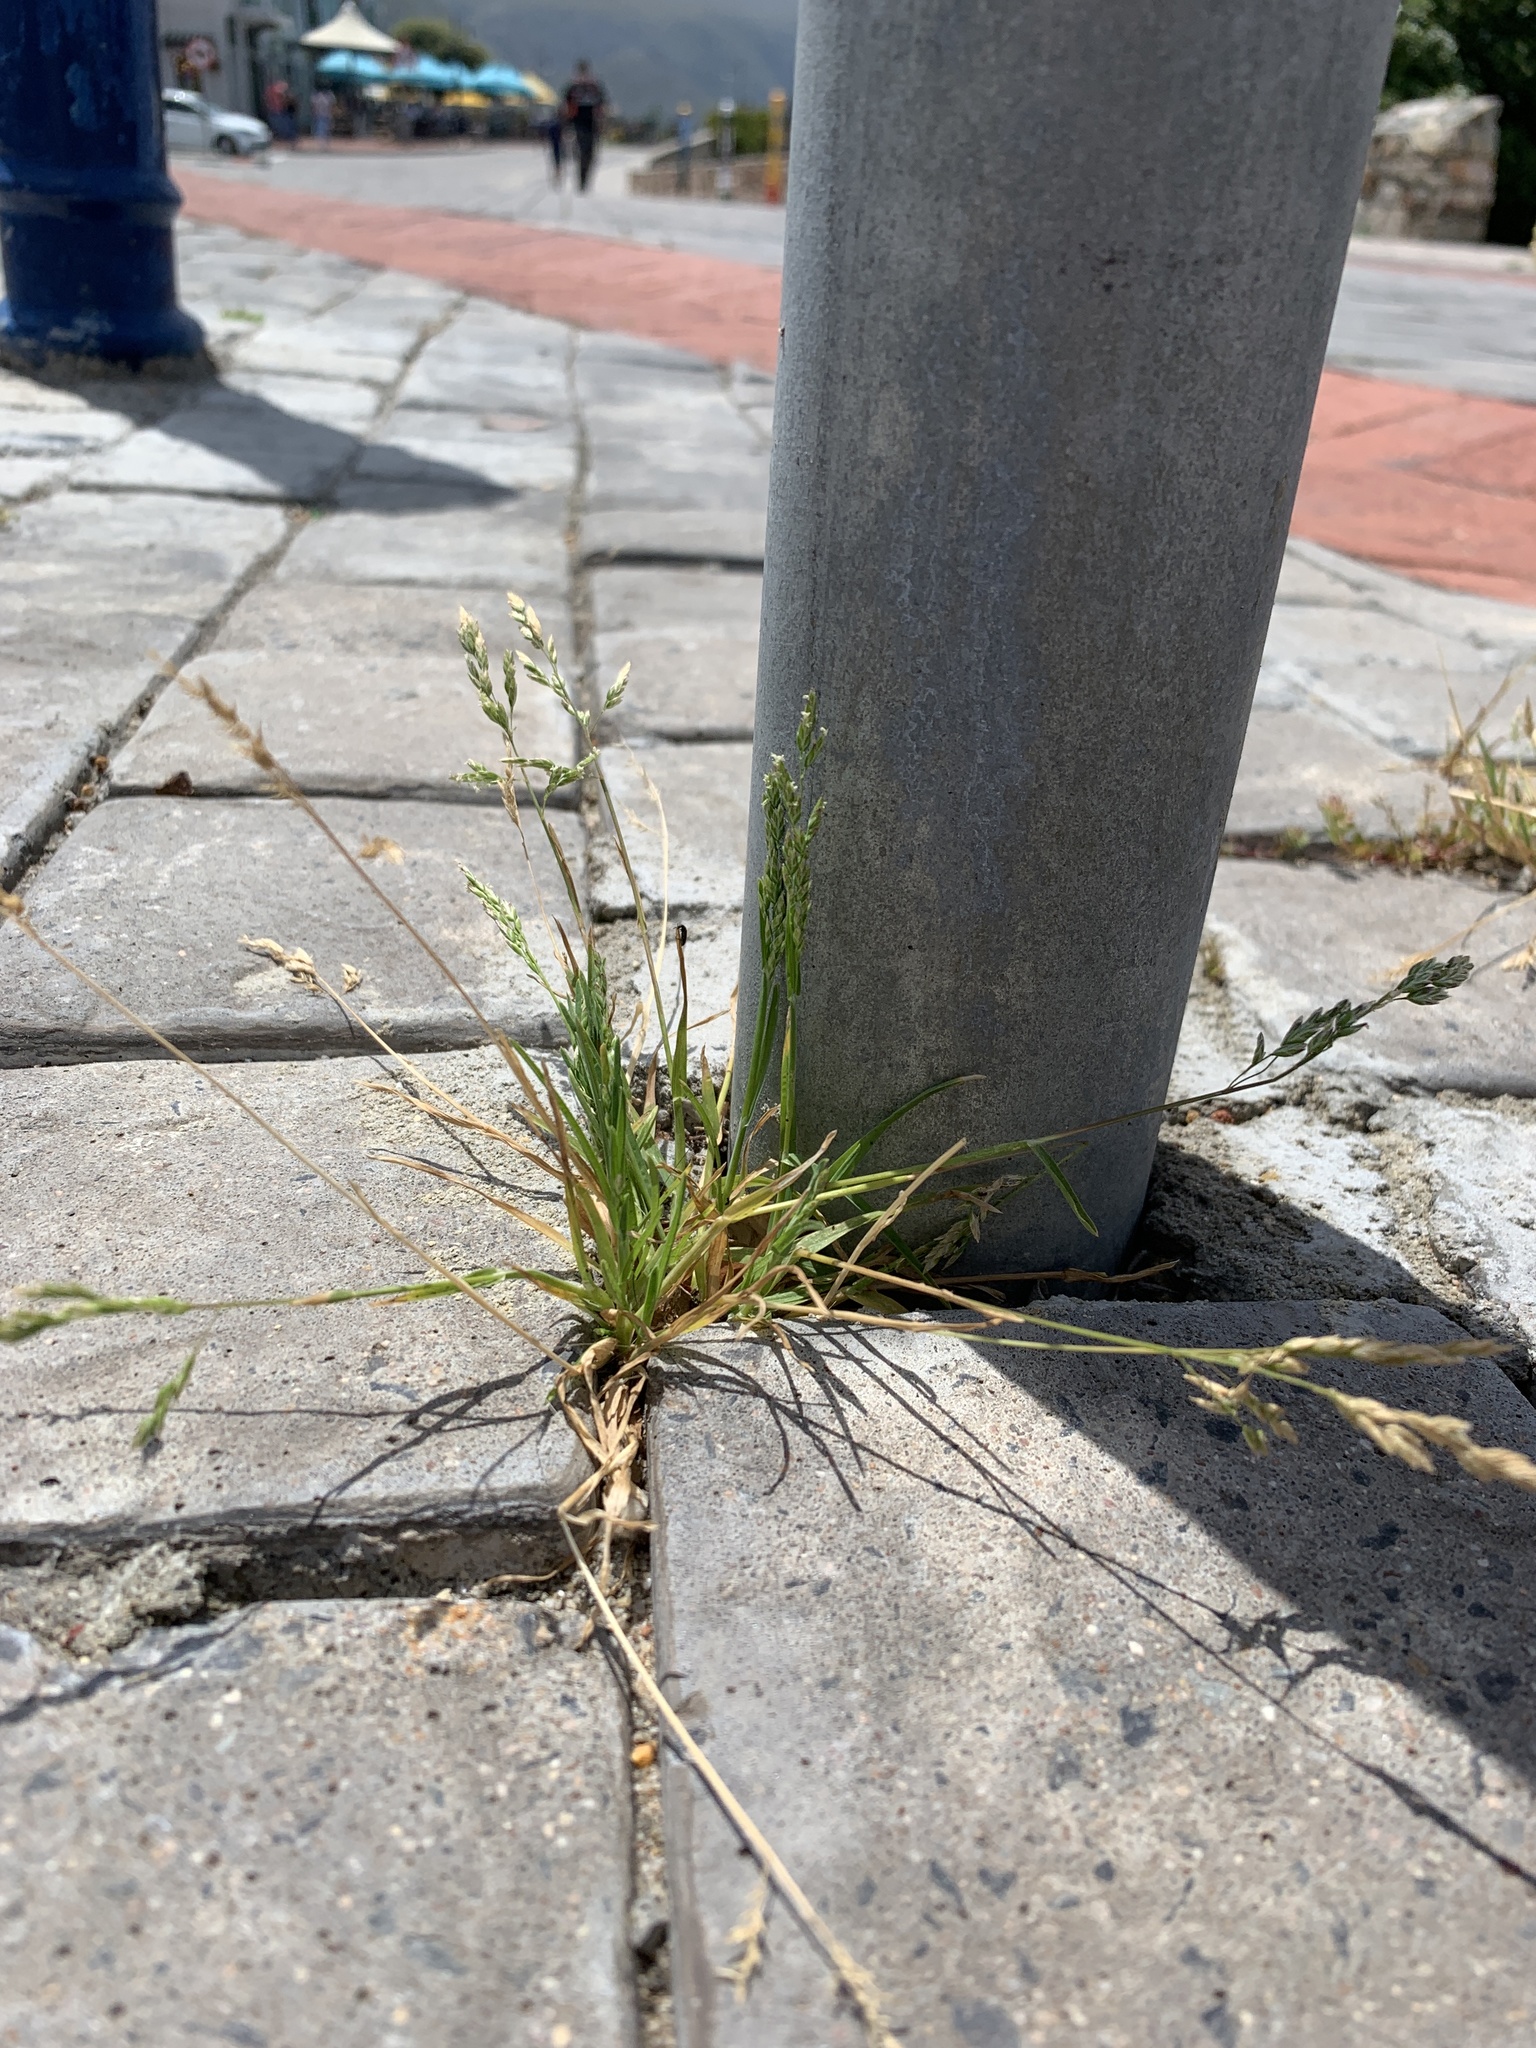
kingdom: Plantae
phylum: Tracheophyta
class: Liliopsida
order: Poales
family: Poaceae
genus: Poa
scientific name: Poa annua
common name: Annual bluegrass
